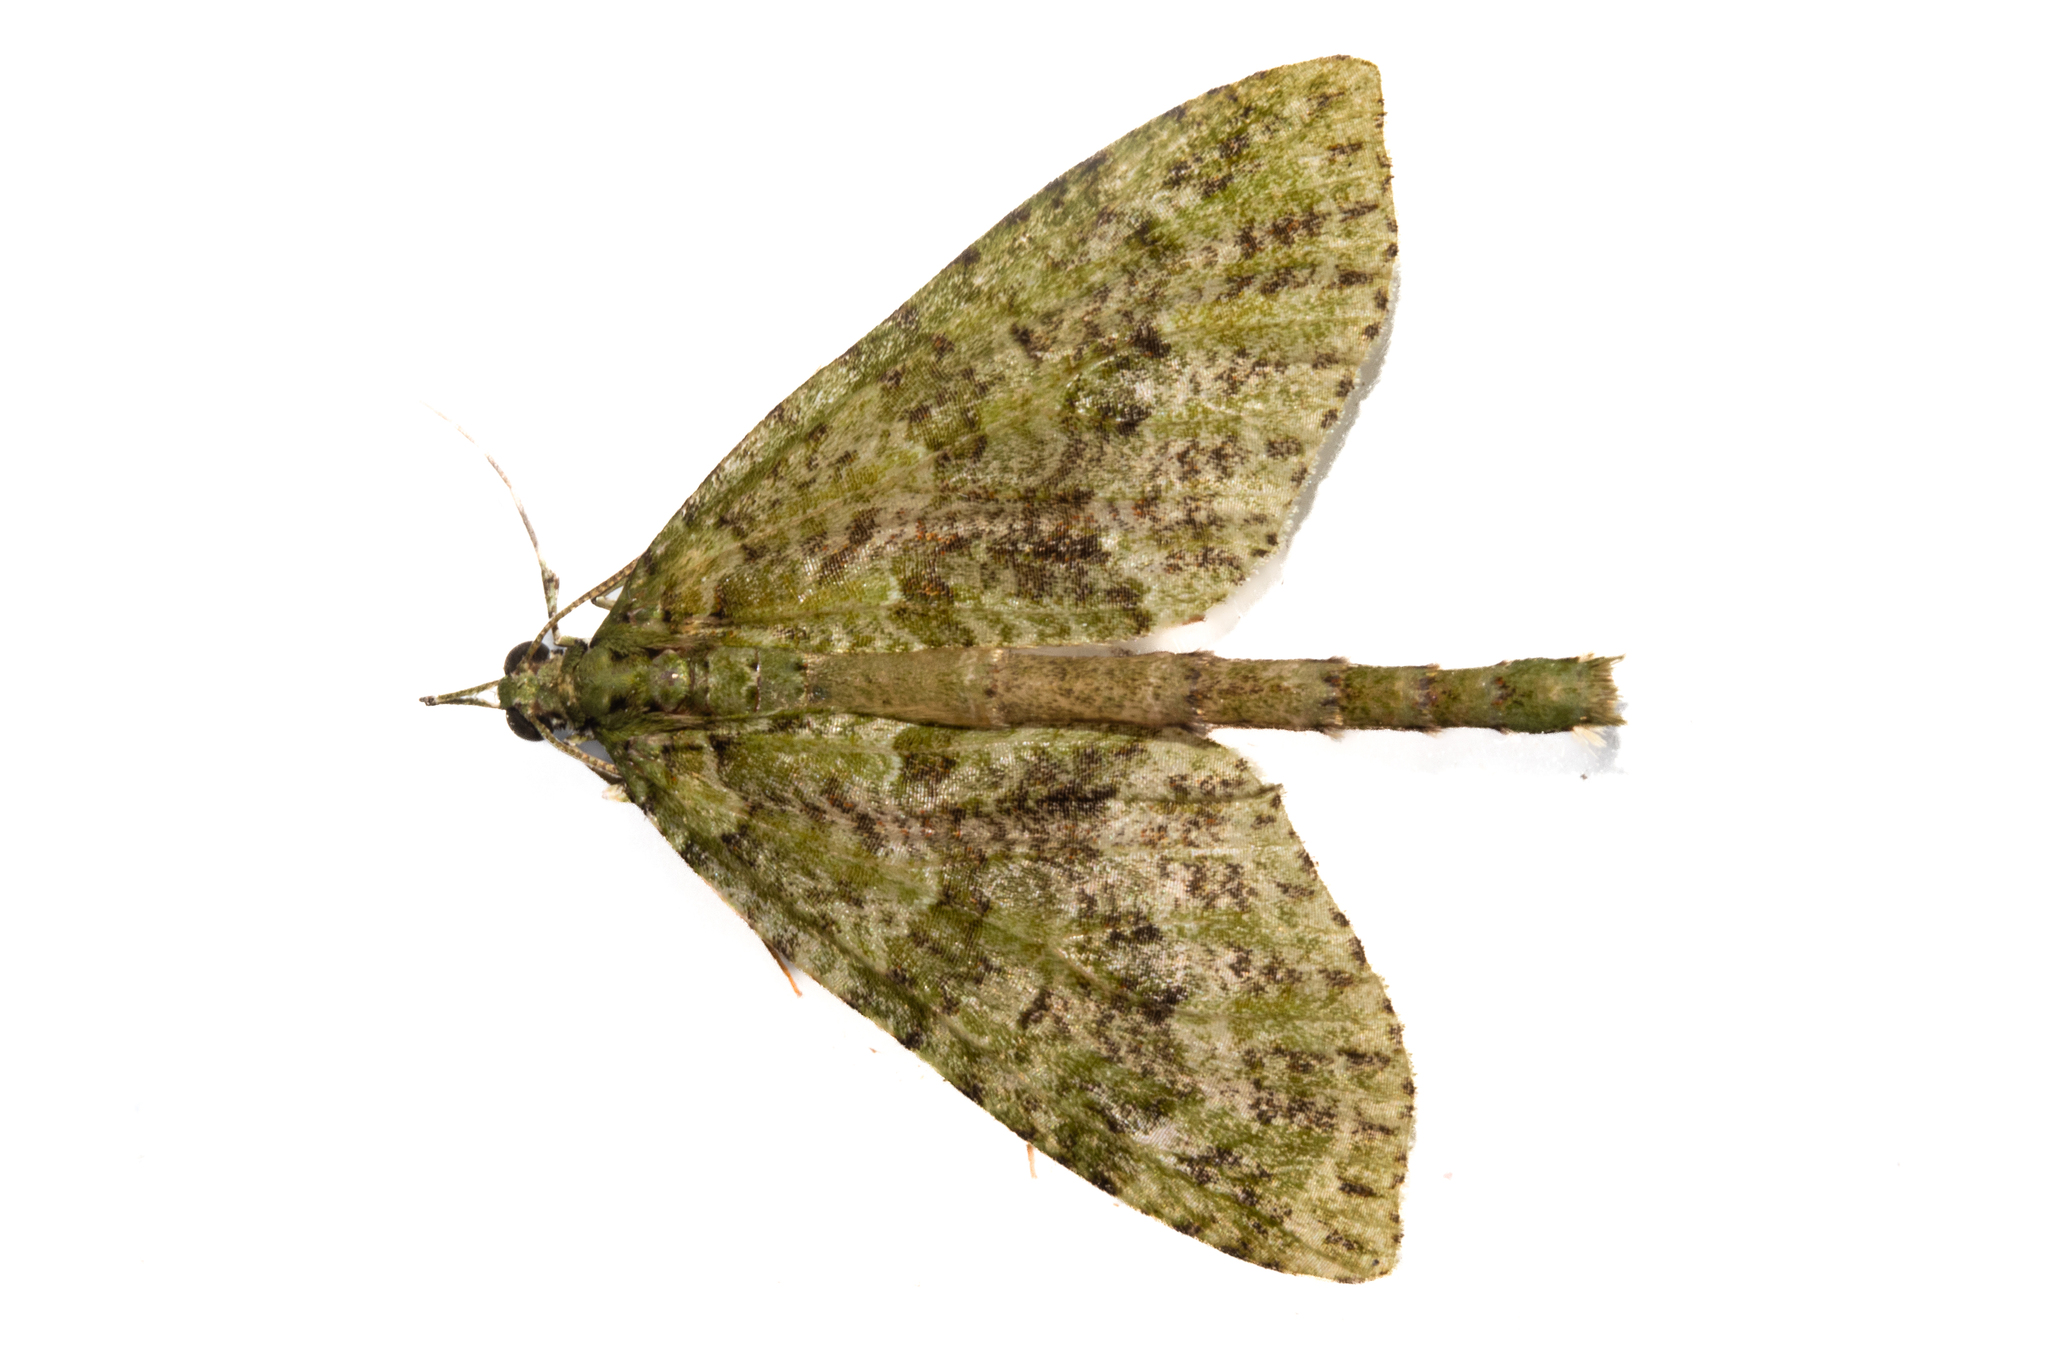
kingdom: Animalia
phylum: Arthropoda
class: Insecta
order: Lepidoptera
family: Geometridae
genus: Tatosoma
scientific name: Tatosoma tipulata
